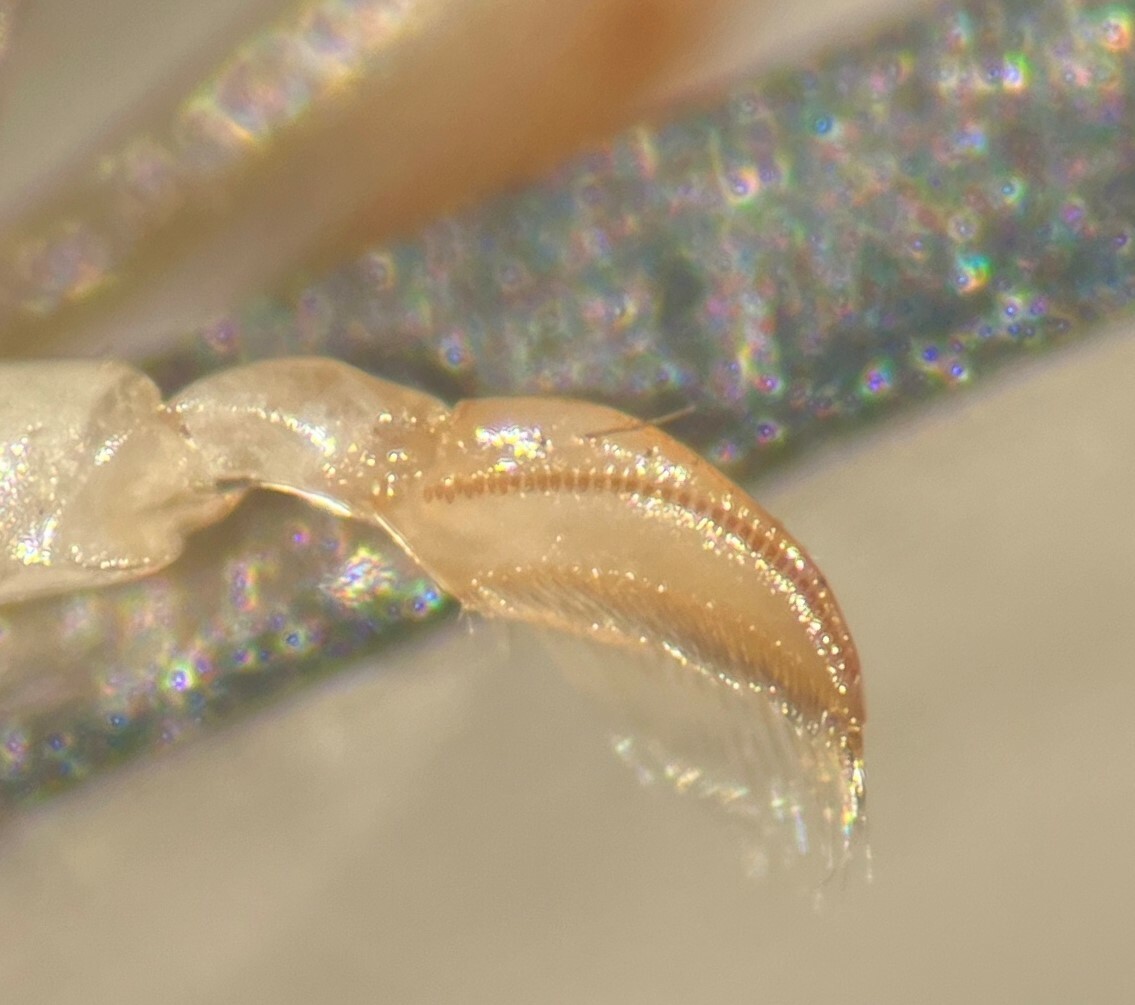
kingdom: Animalia
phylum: Arthropoda
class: Insecta
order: Hemiptera
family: Corixidae
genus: Sigara
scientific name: Sigara grossolineata
